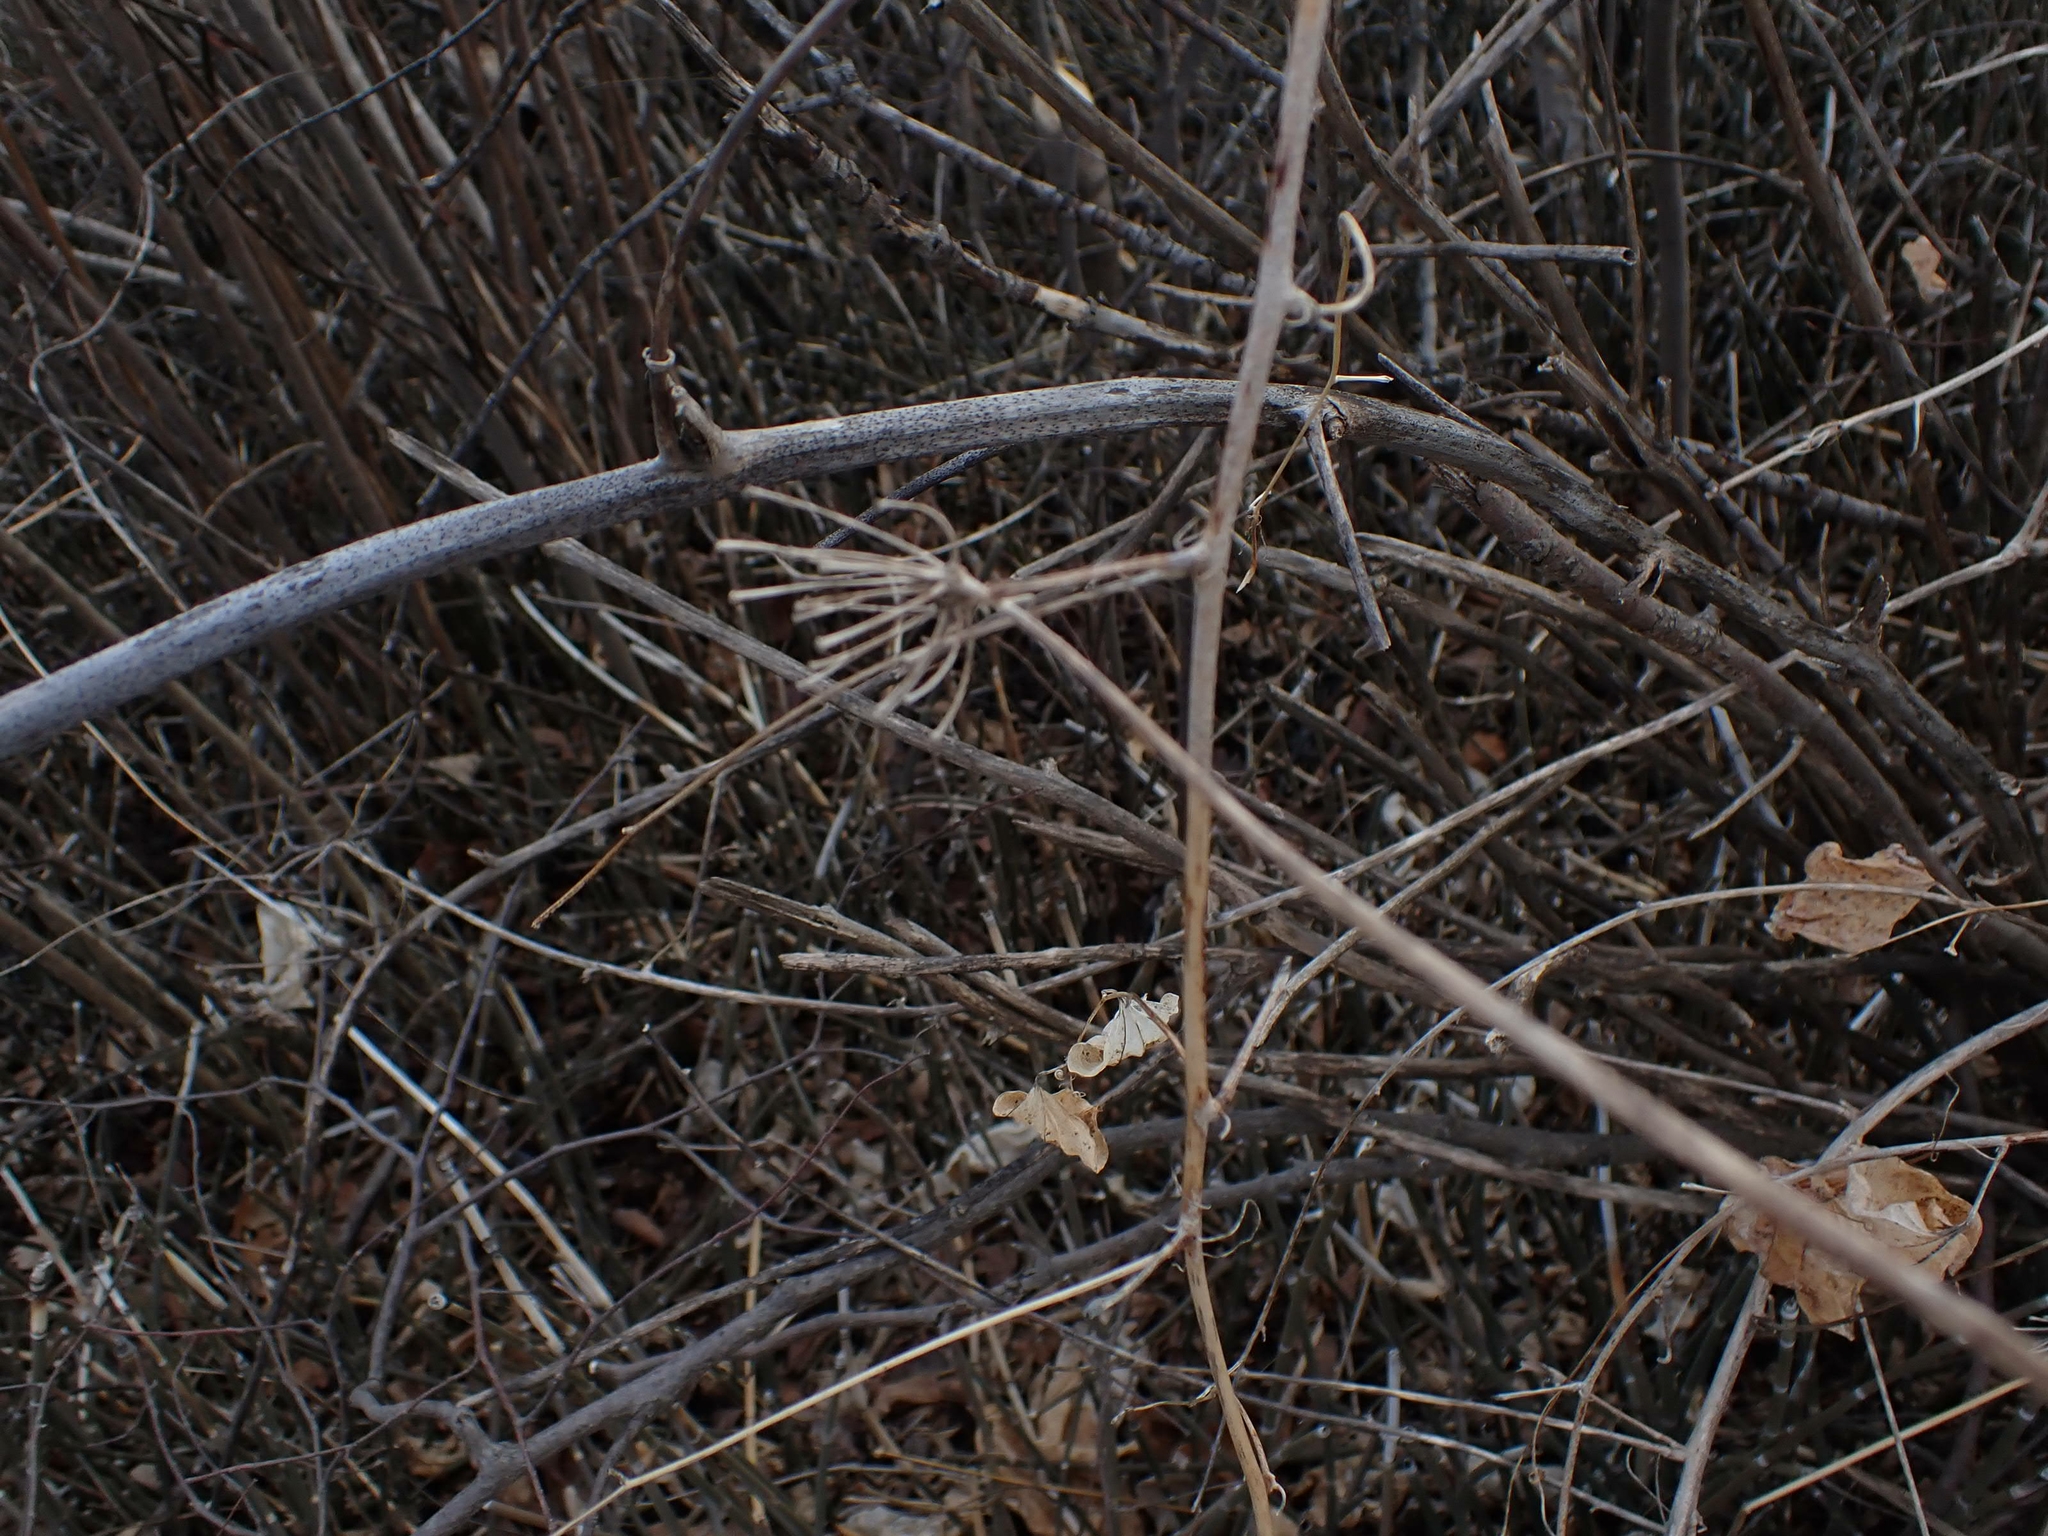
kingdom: Plantae
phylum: Tracheophyta
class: Liliopsida
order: Liliales
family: Smilacaceae
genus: Smilax
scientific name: Smilax lasioneura
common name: Blue ridge carrionflower
